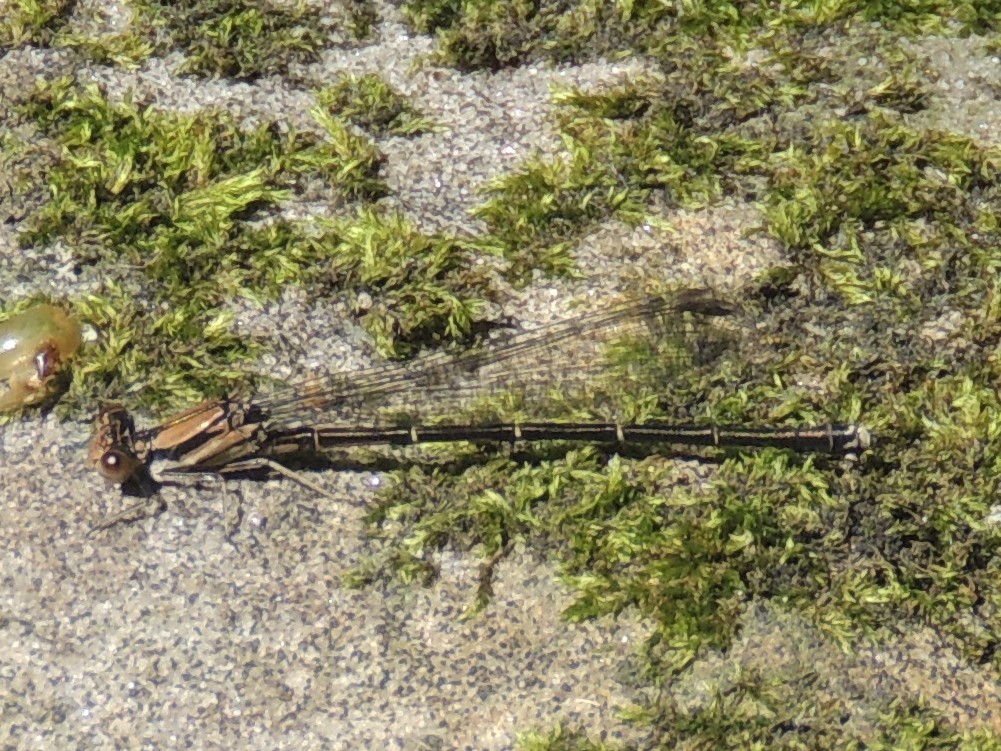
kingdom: Animalia
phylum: Arthropoda
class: Insecta
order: Odonata
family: Coenagrionidae
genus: Argia
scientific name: Argia tibialis
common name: Blue-tipped dancer
